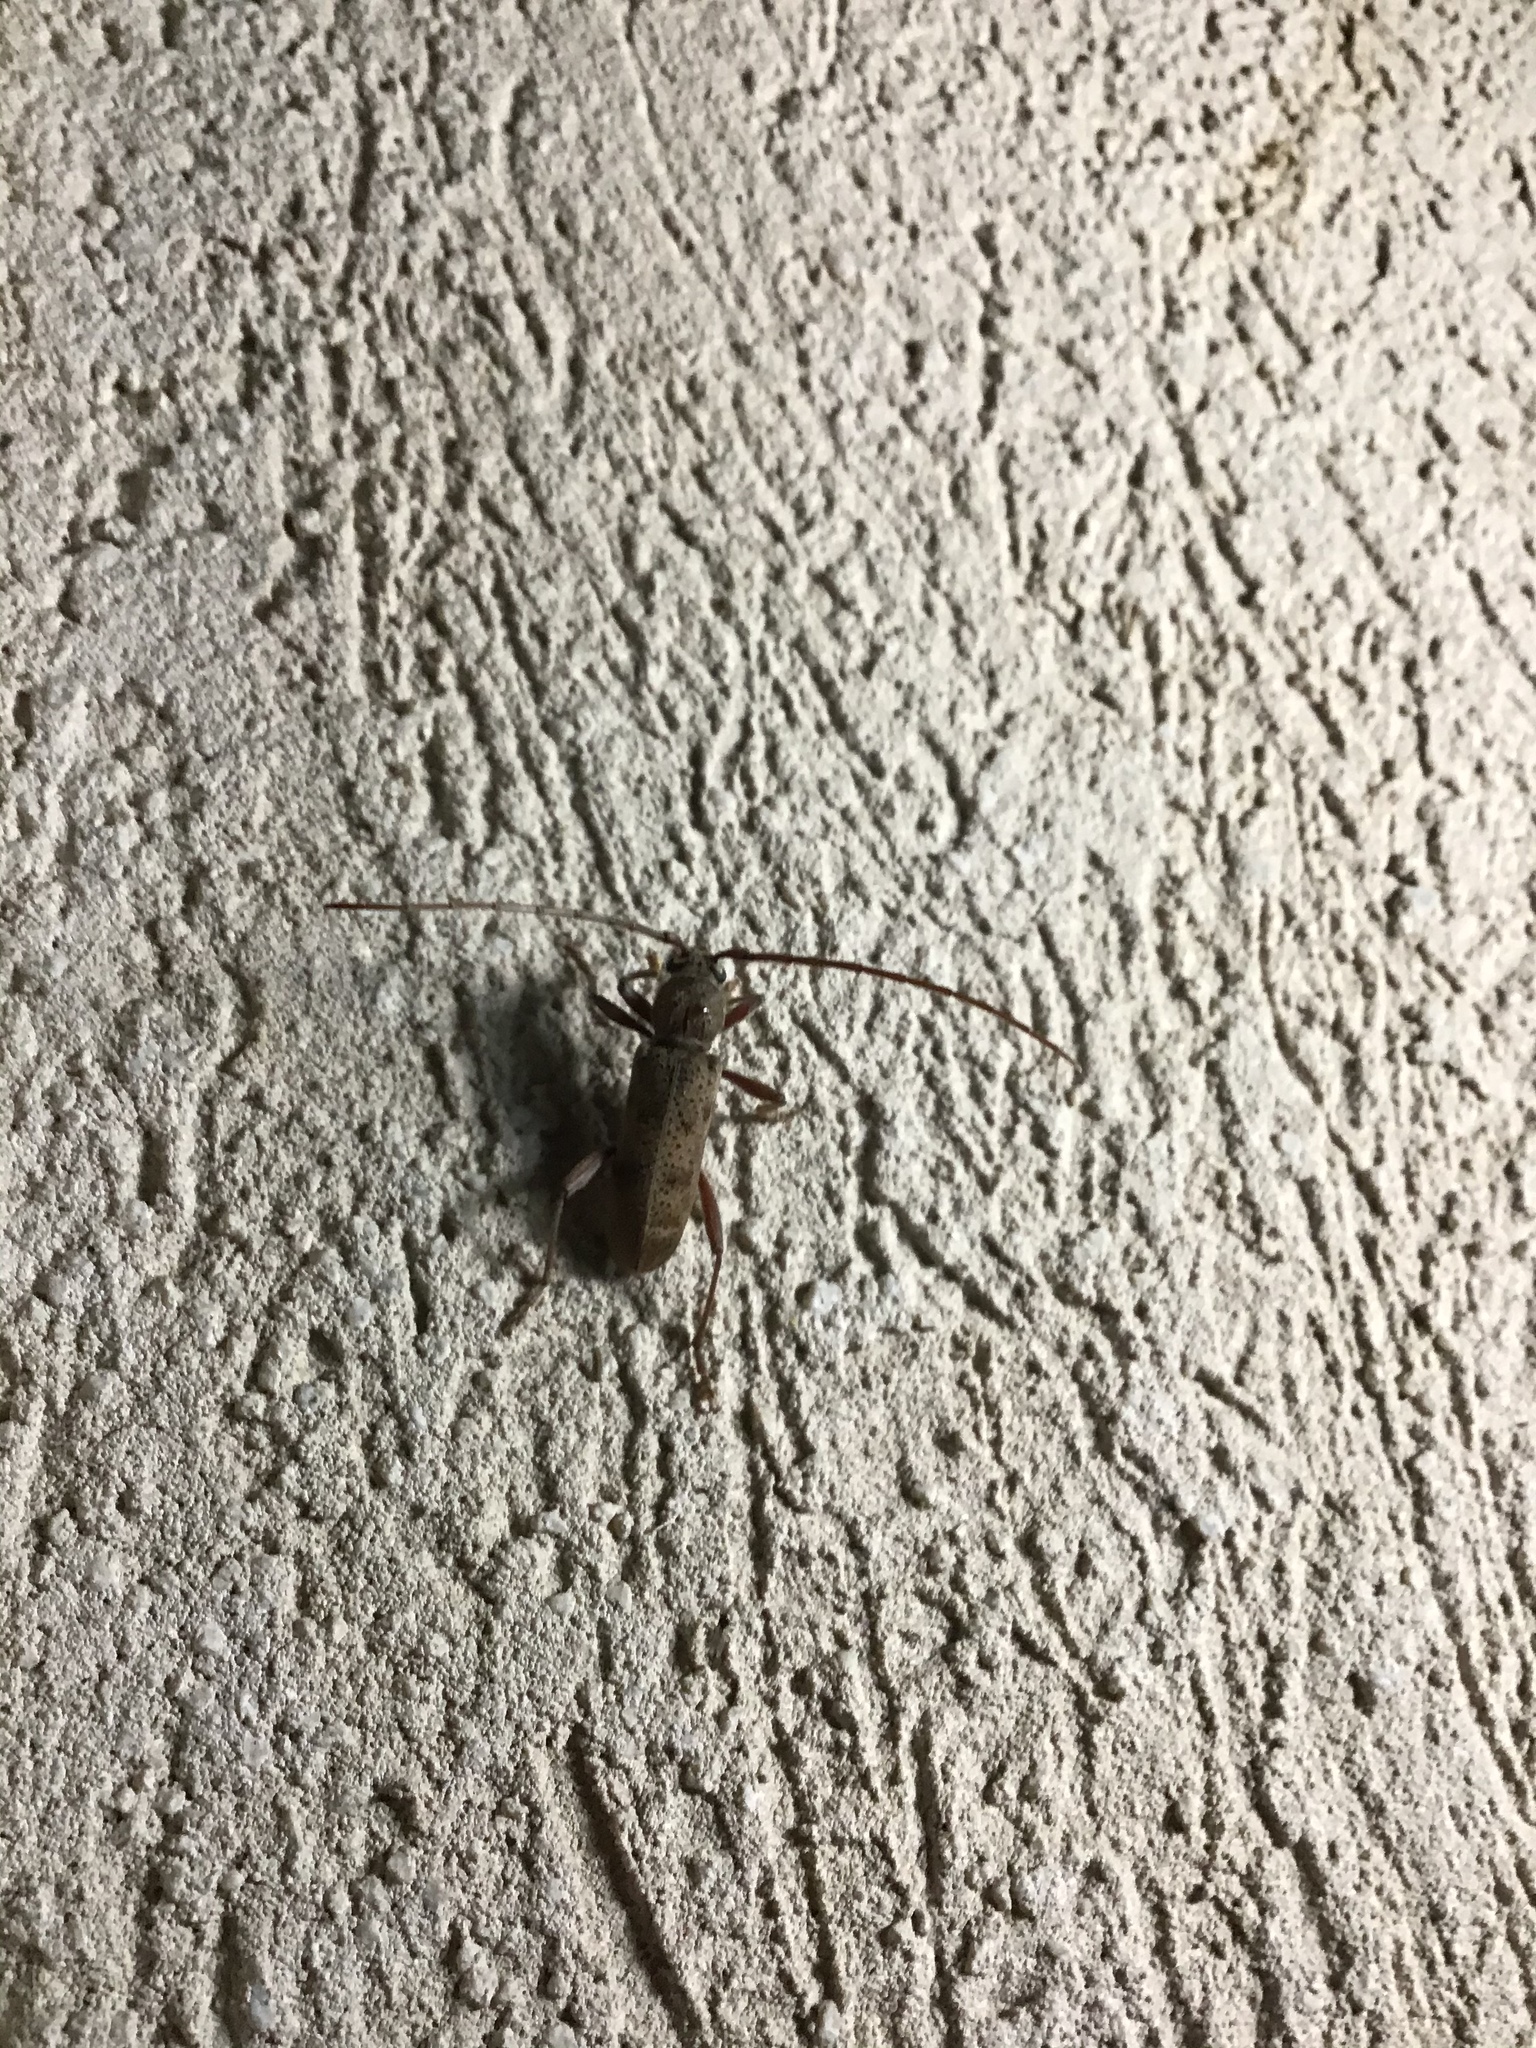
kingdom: Animalia
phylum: Arthropoda
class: Insecta
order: Coleoptera
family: Cerambycidae
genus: Brothylus
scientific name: Brothylus gemmulatus
